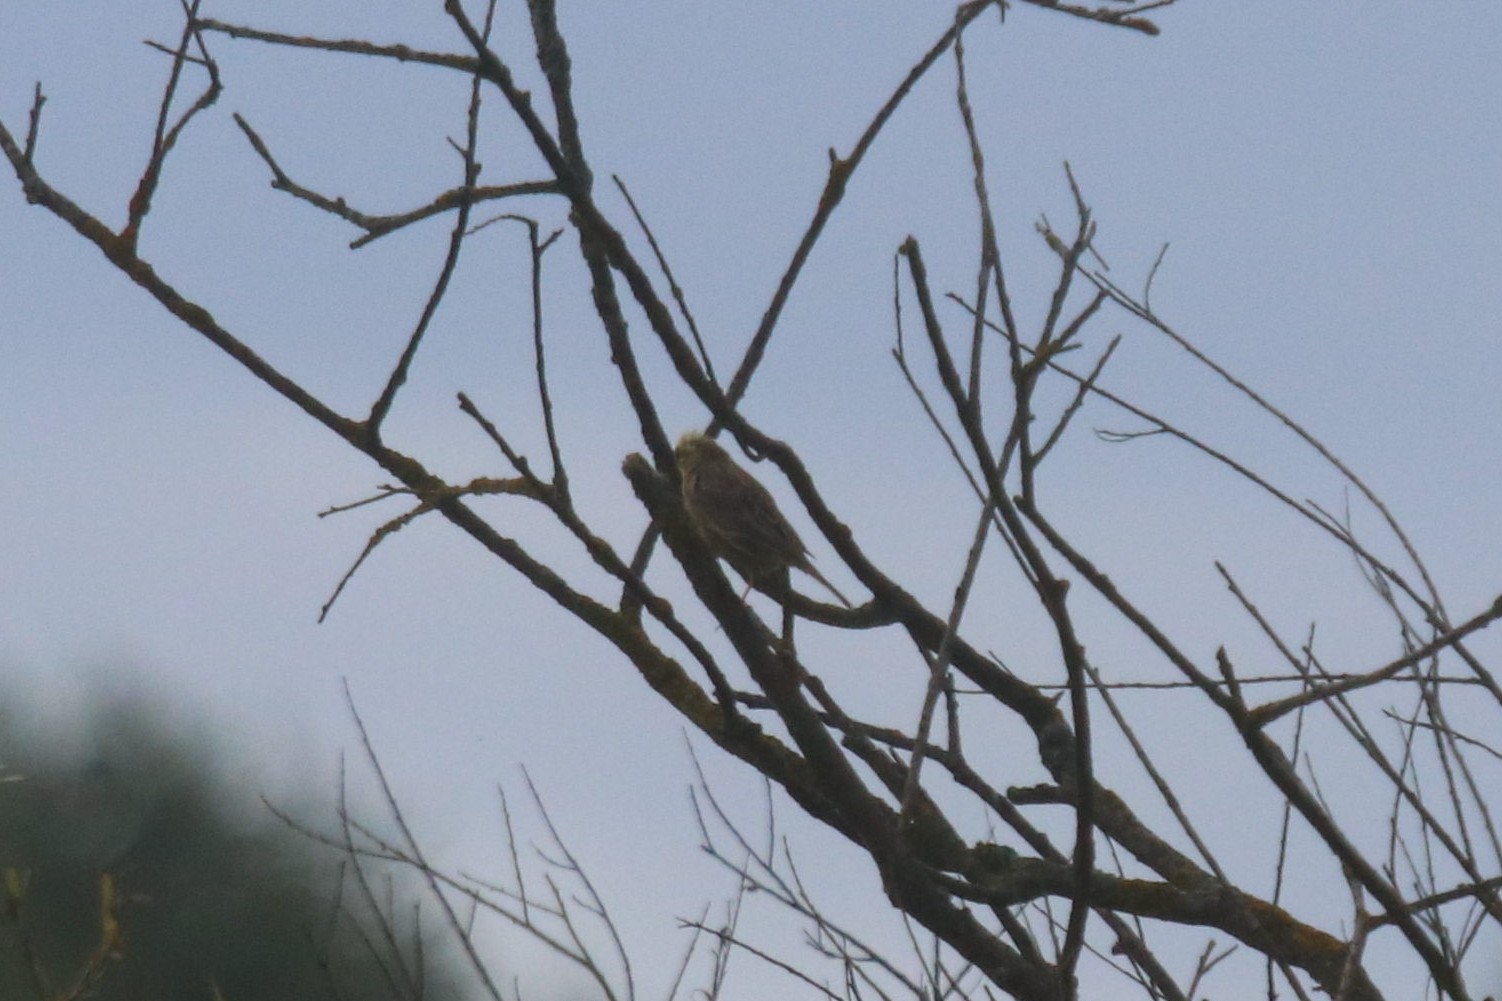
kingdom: Animalia
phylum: Chordata
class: Aves
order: Passeriformes
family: Emberizidae
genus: Emberiza
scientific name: Emberiza citrinella
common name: Yellowhammer
